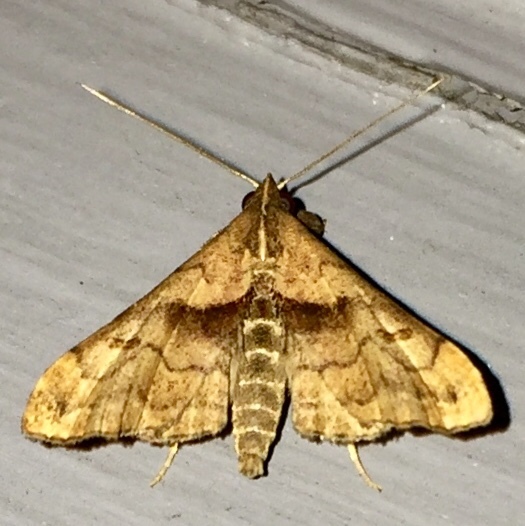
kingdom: Animalia
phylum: Arthropoda
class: Insecta
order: Lepidoptera
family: Erebidae
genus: Palthis
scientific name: Palthis angulalis
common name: Dark-spotted palthis moth
